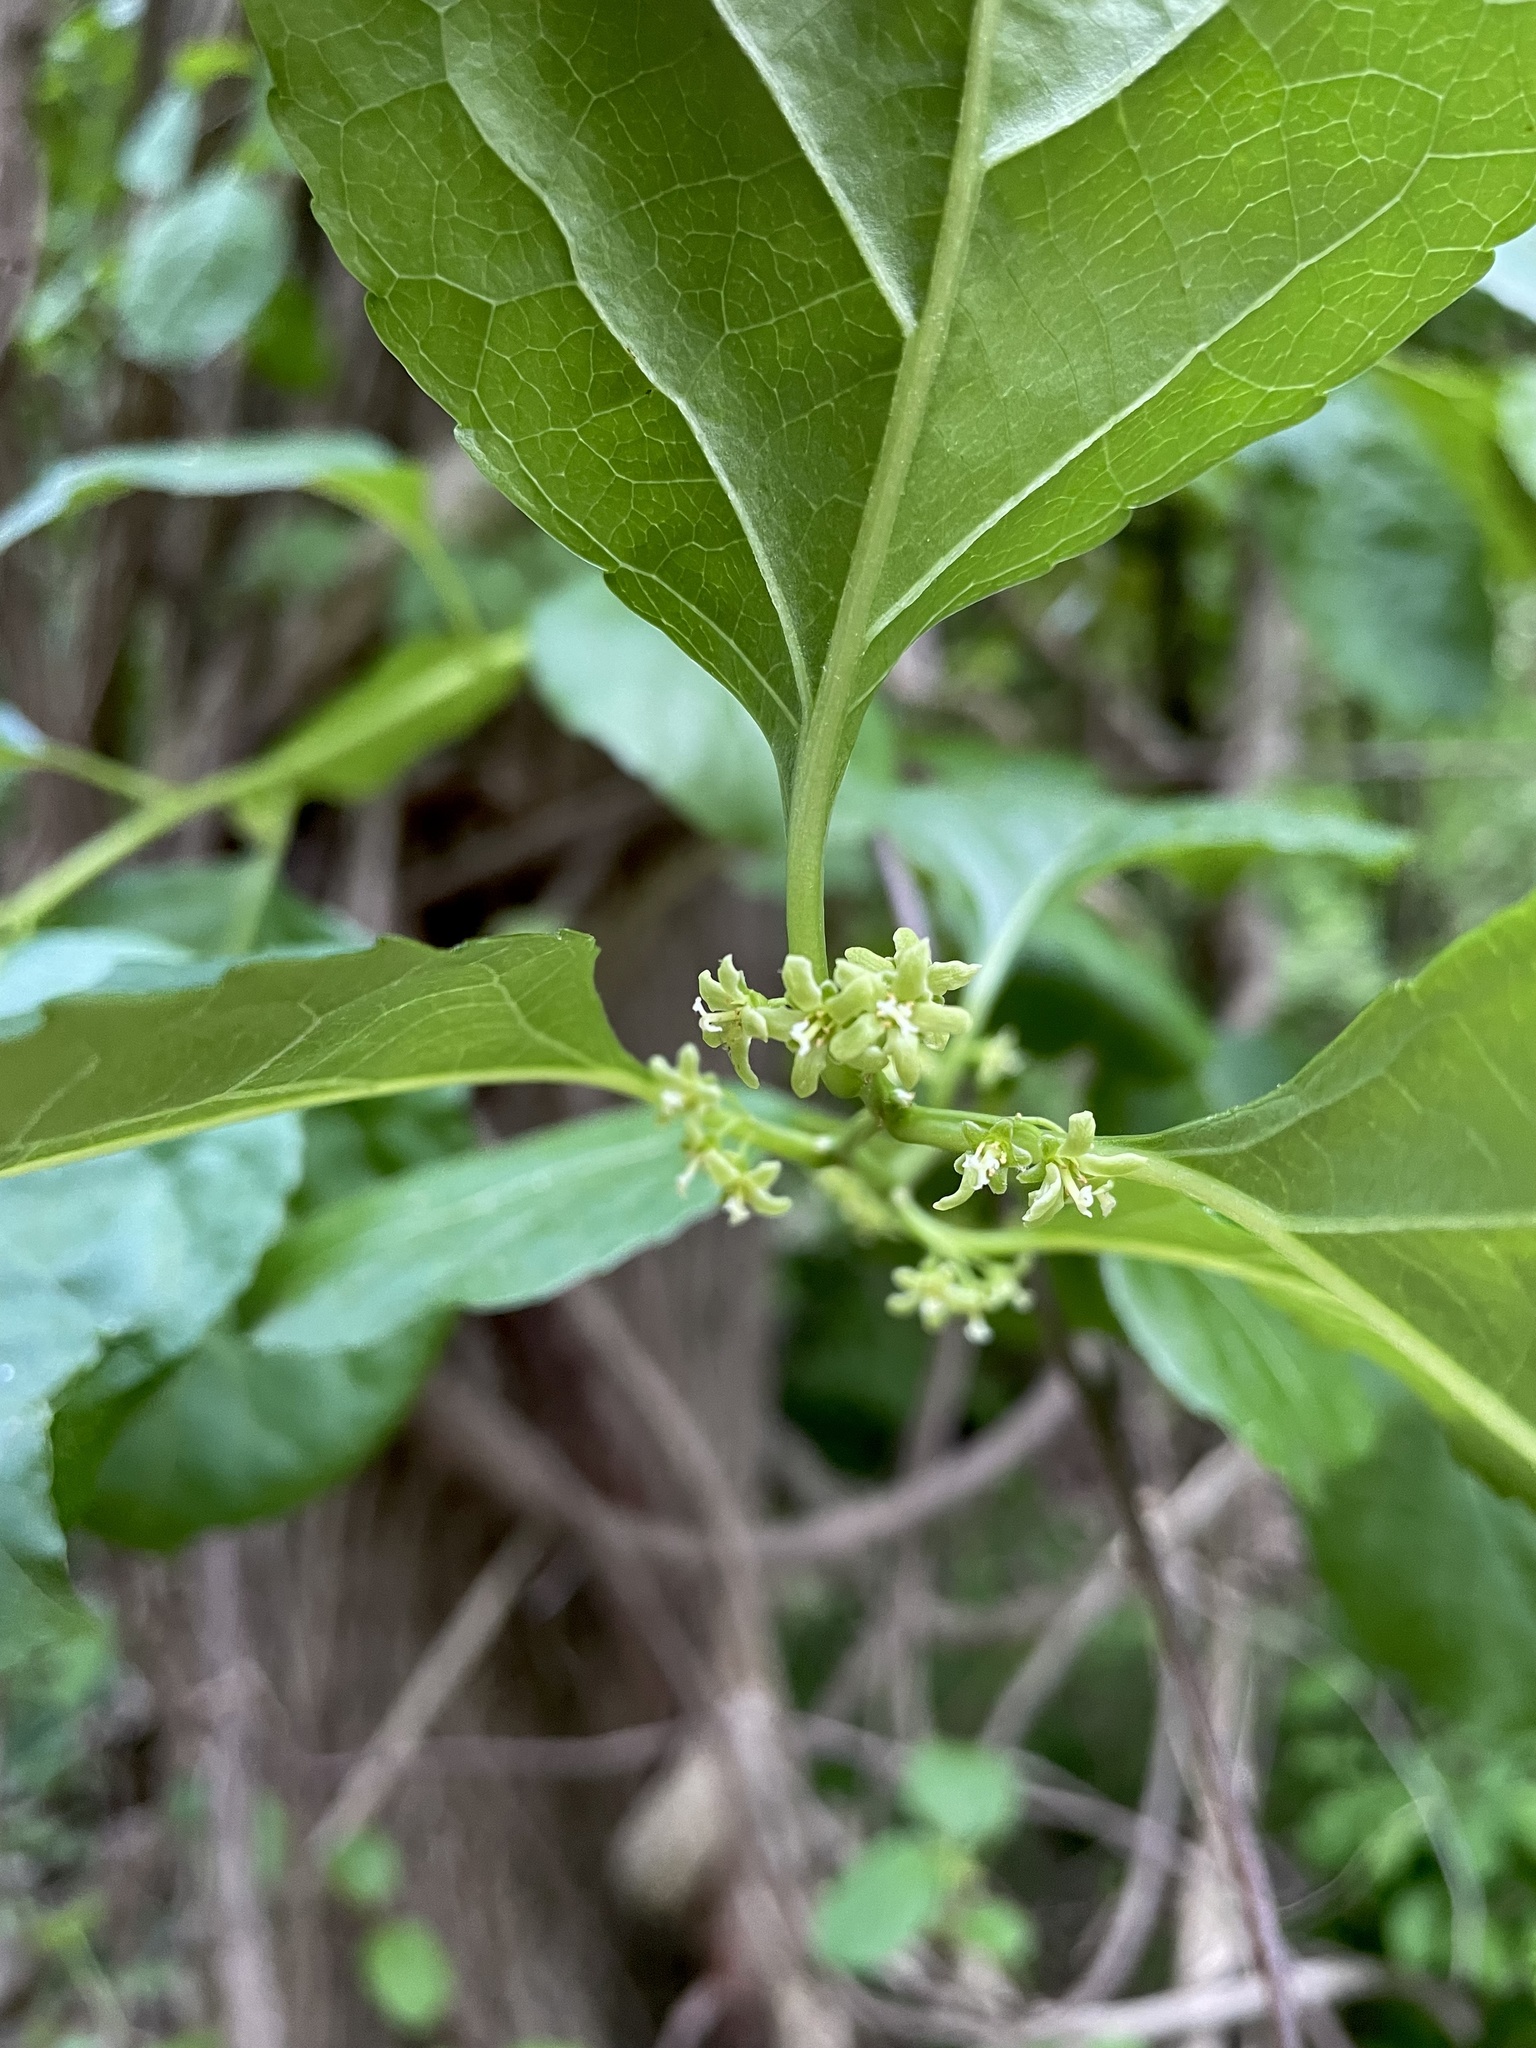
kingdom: Plantae
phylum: Tracheophyta
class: Magnoliopsida
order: Celastrales
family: Celastraceae
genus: Celastrus
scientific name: Celastrus orbiculatus
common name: Oriental bittersweet
